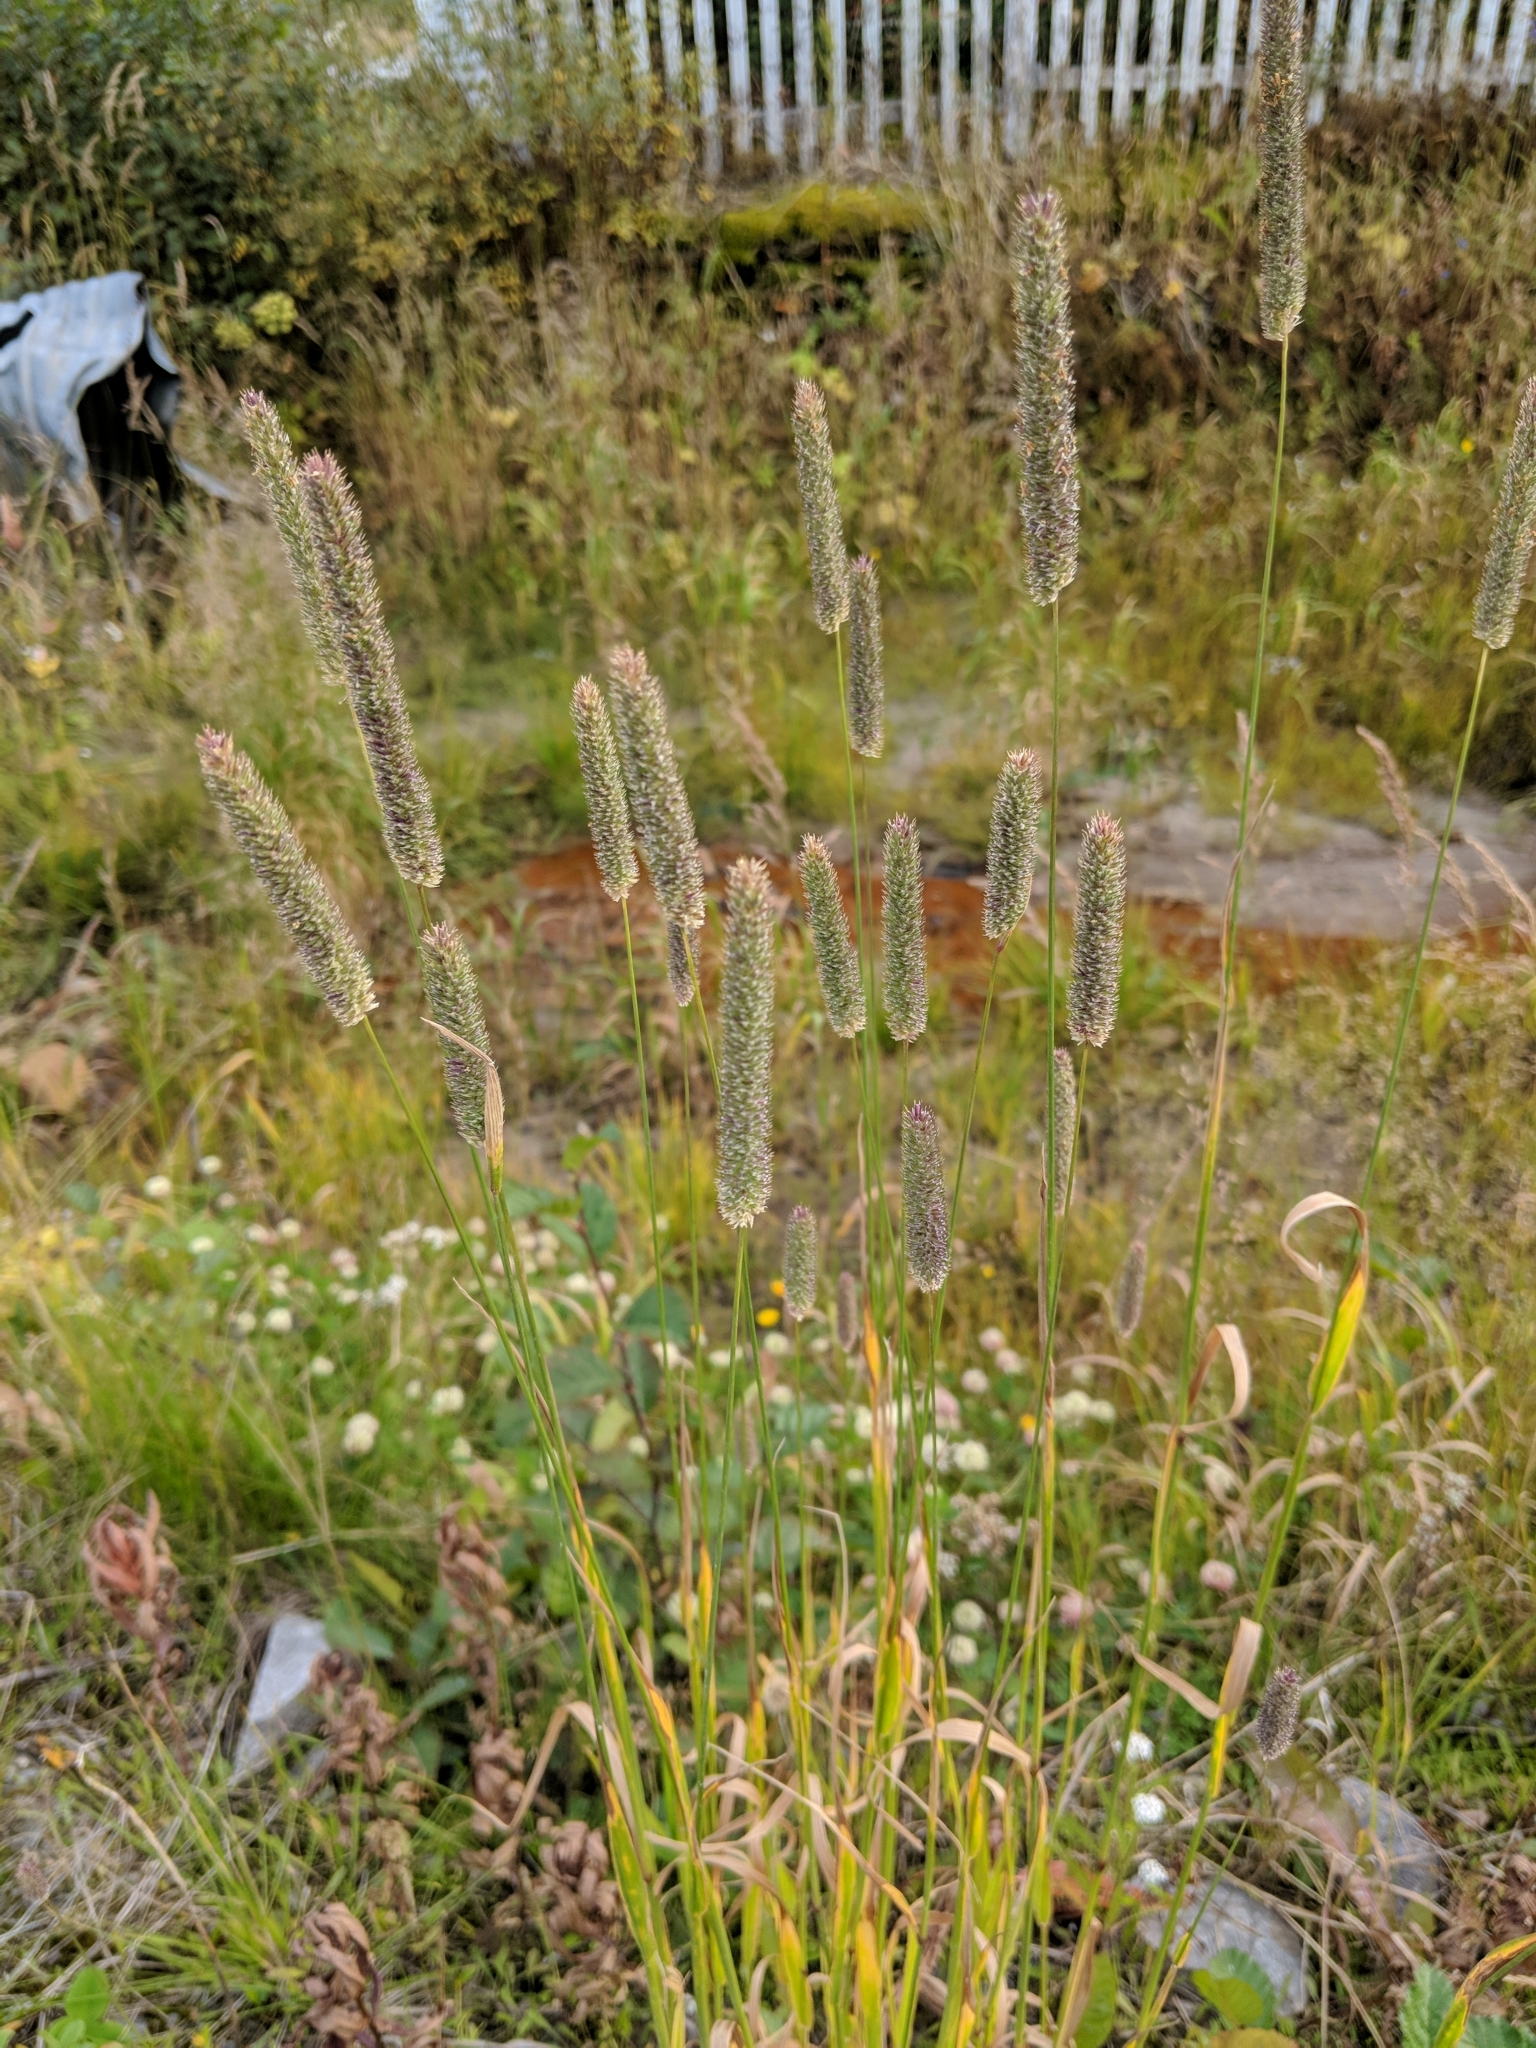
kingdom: Plantae
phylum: Tracheophyta
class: Liliopsida
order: Poales
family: Poaceae
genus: Phleum
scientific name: Phleum pratense
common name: Timothy grass
